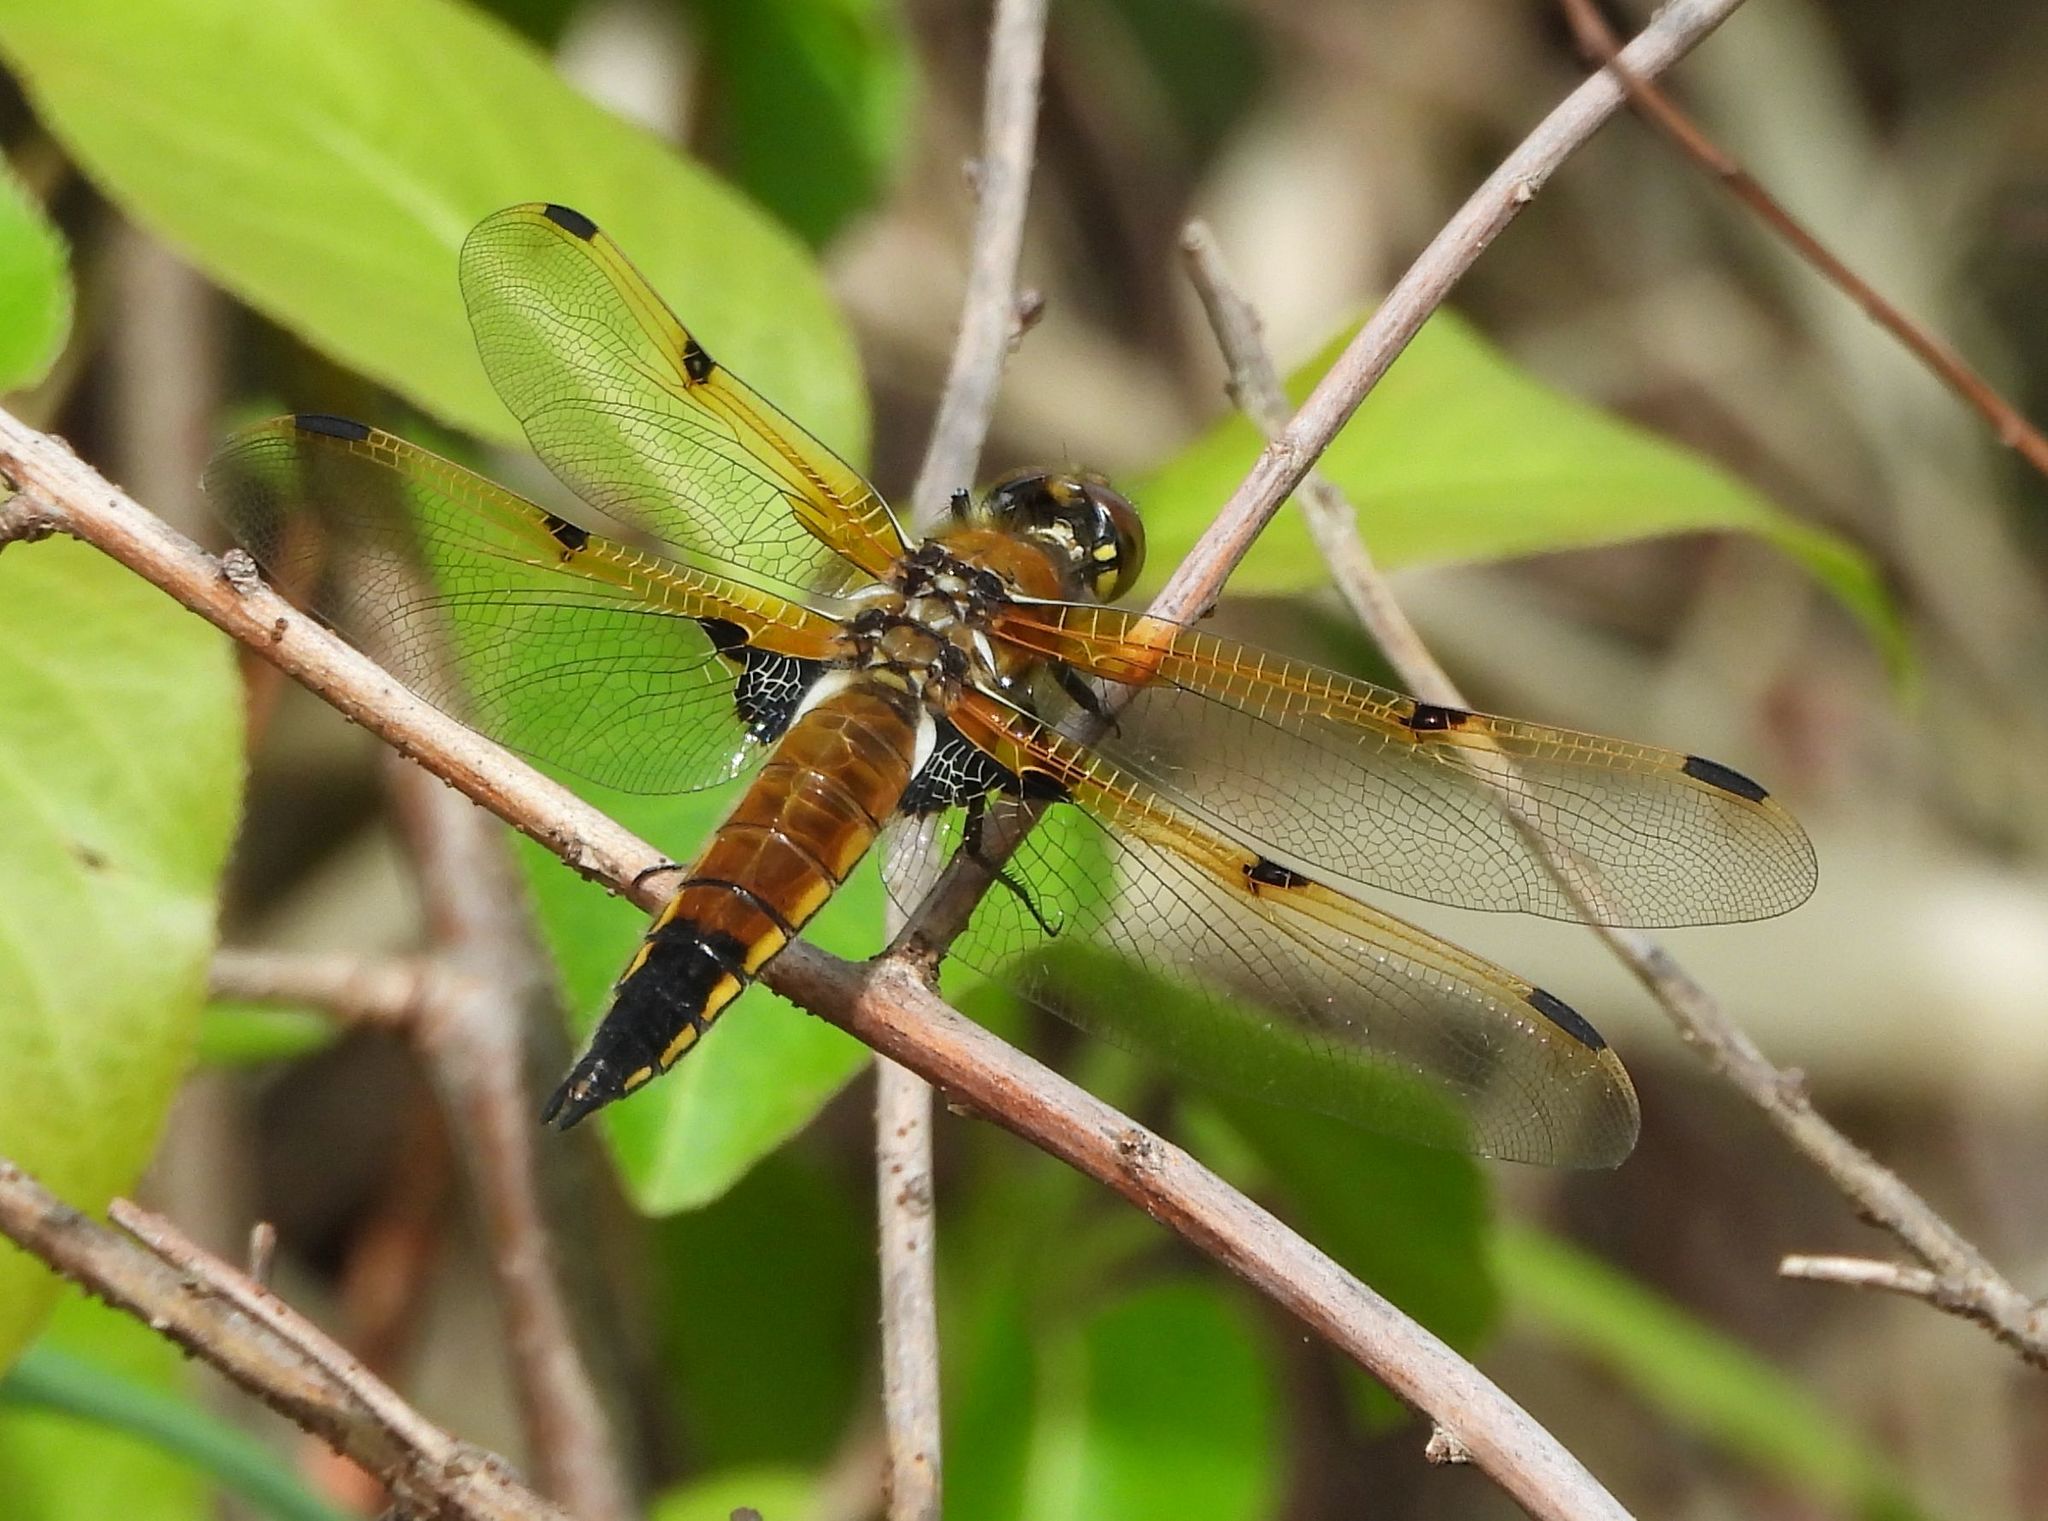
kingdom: Animalia
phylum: Arthropoda
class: Insecta
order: Odonata
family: Libellulidae
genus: Libellula
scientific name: Libellula quadrimaculata
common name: Four-spotted chaser
